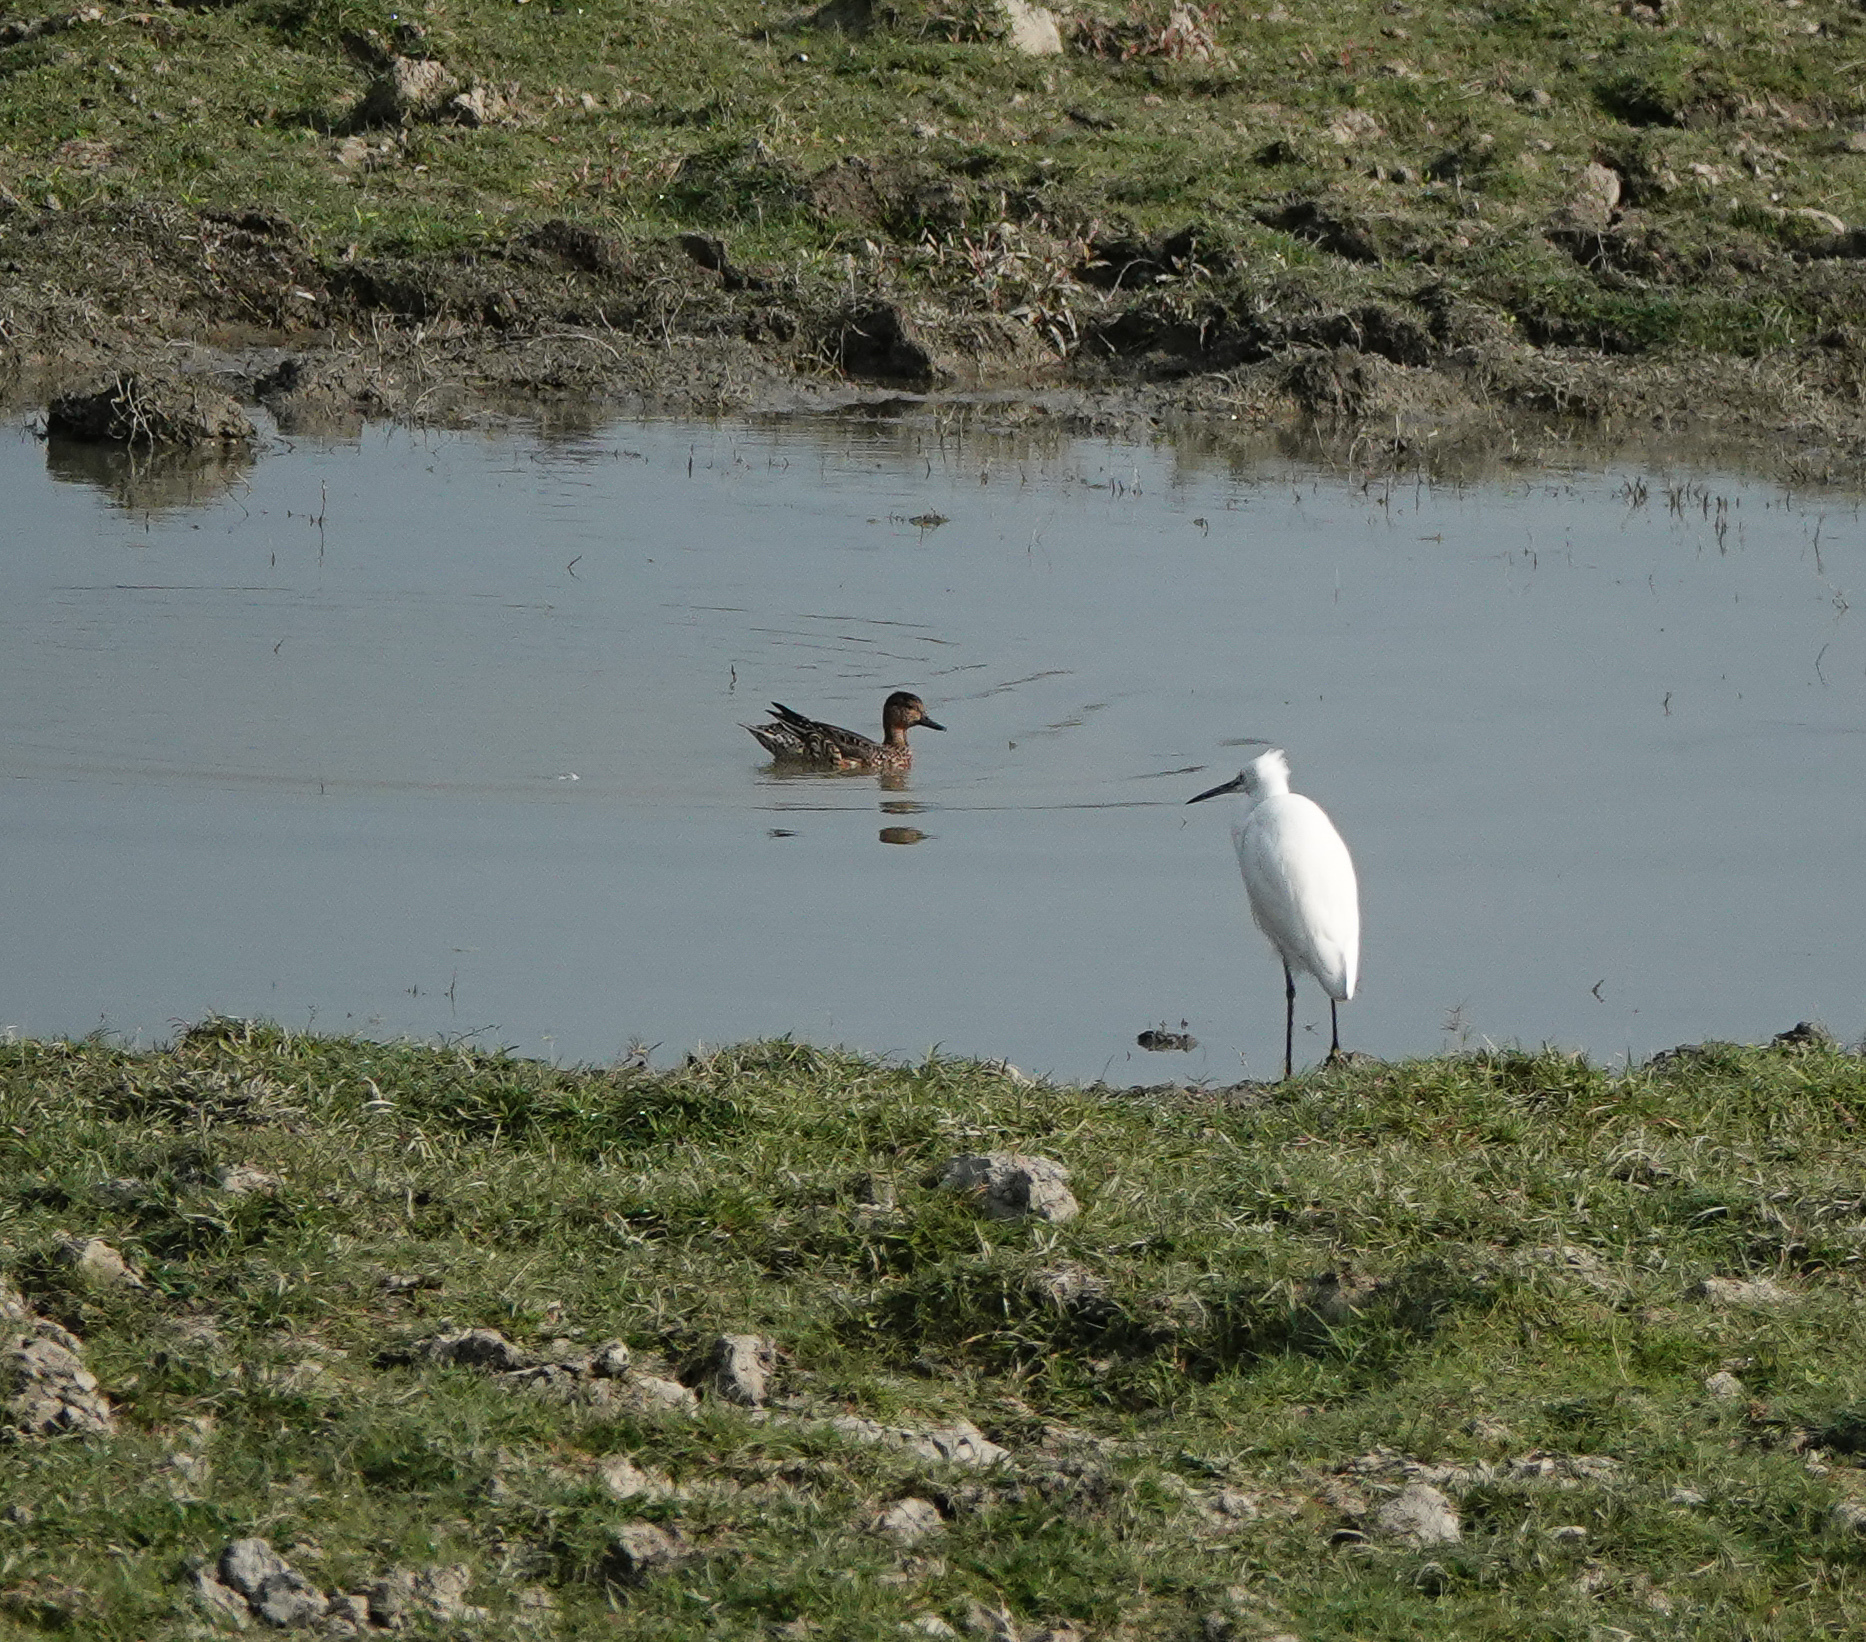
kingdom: Animalia
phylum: Chordata
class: Aves
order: Pelecaniformes
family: Ardeidae
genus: Egretta
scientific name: Egretta garzetta
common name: Little egret
